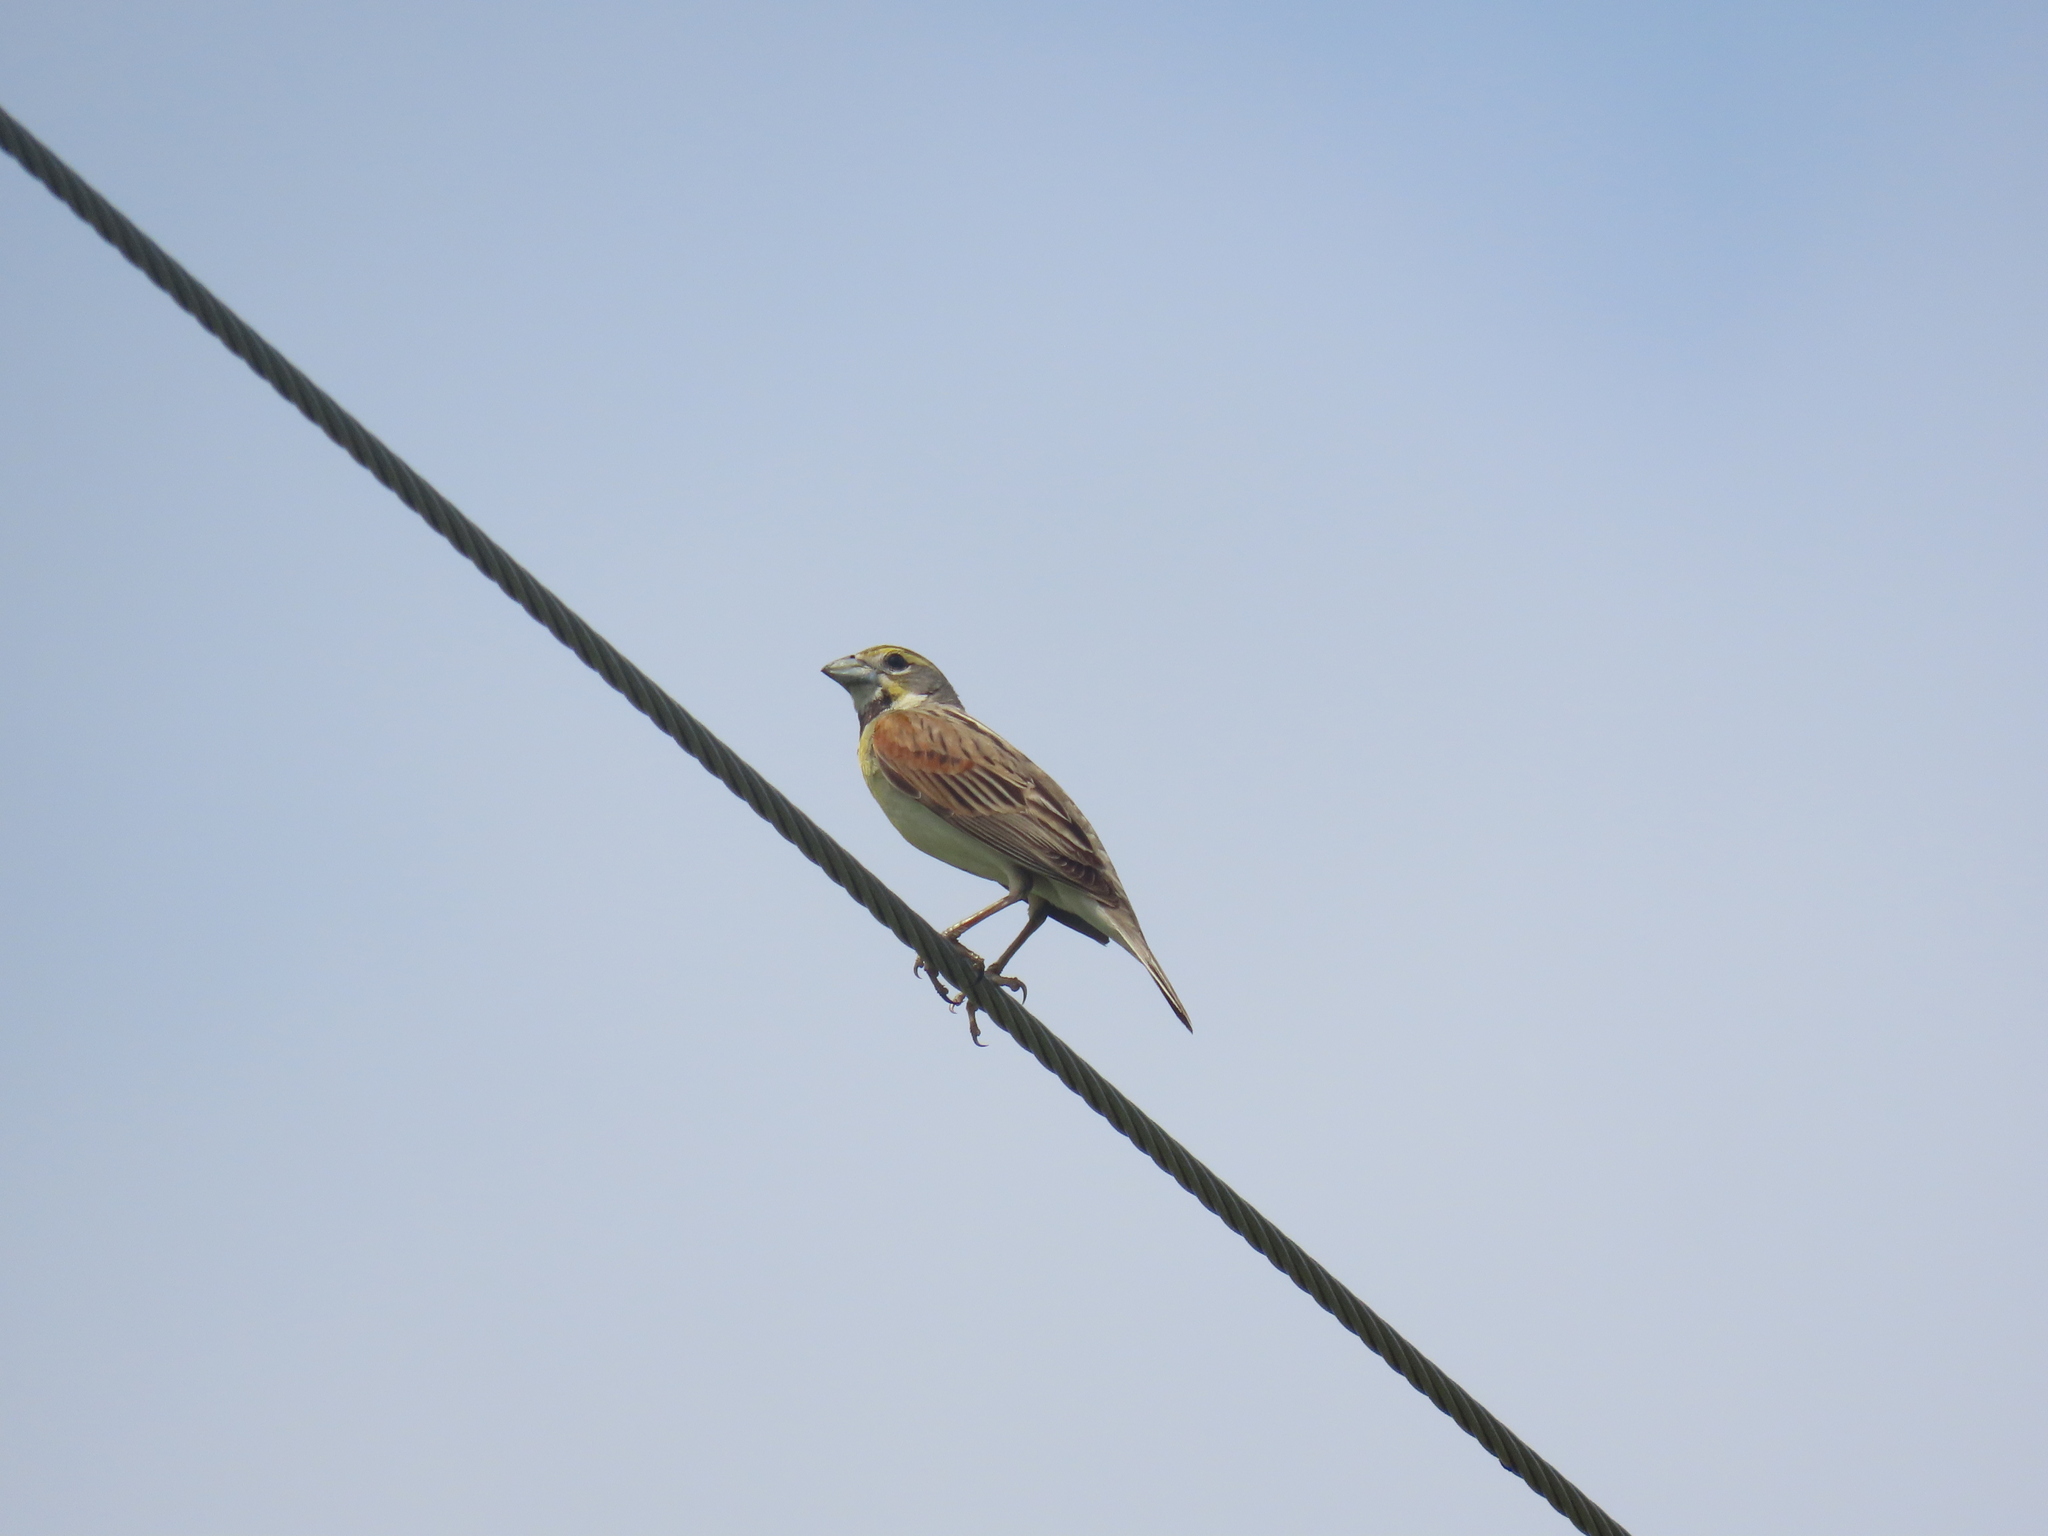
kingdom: Animalia
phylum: Chordata
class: Aves
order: Passeriformes
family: Cardinalidae
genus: Spiza
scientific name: Spiza americana
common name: Dickcissel
